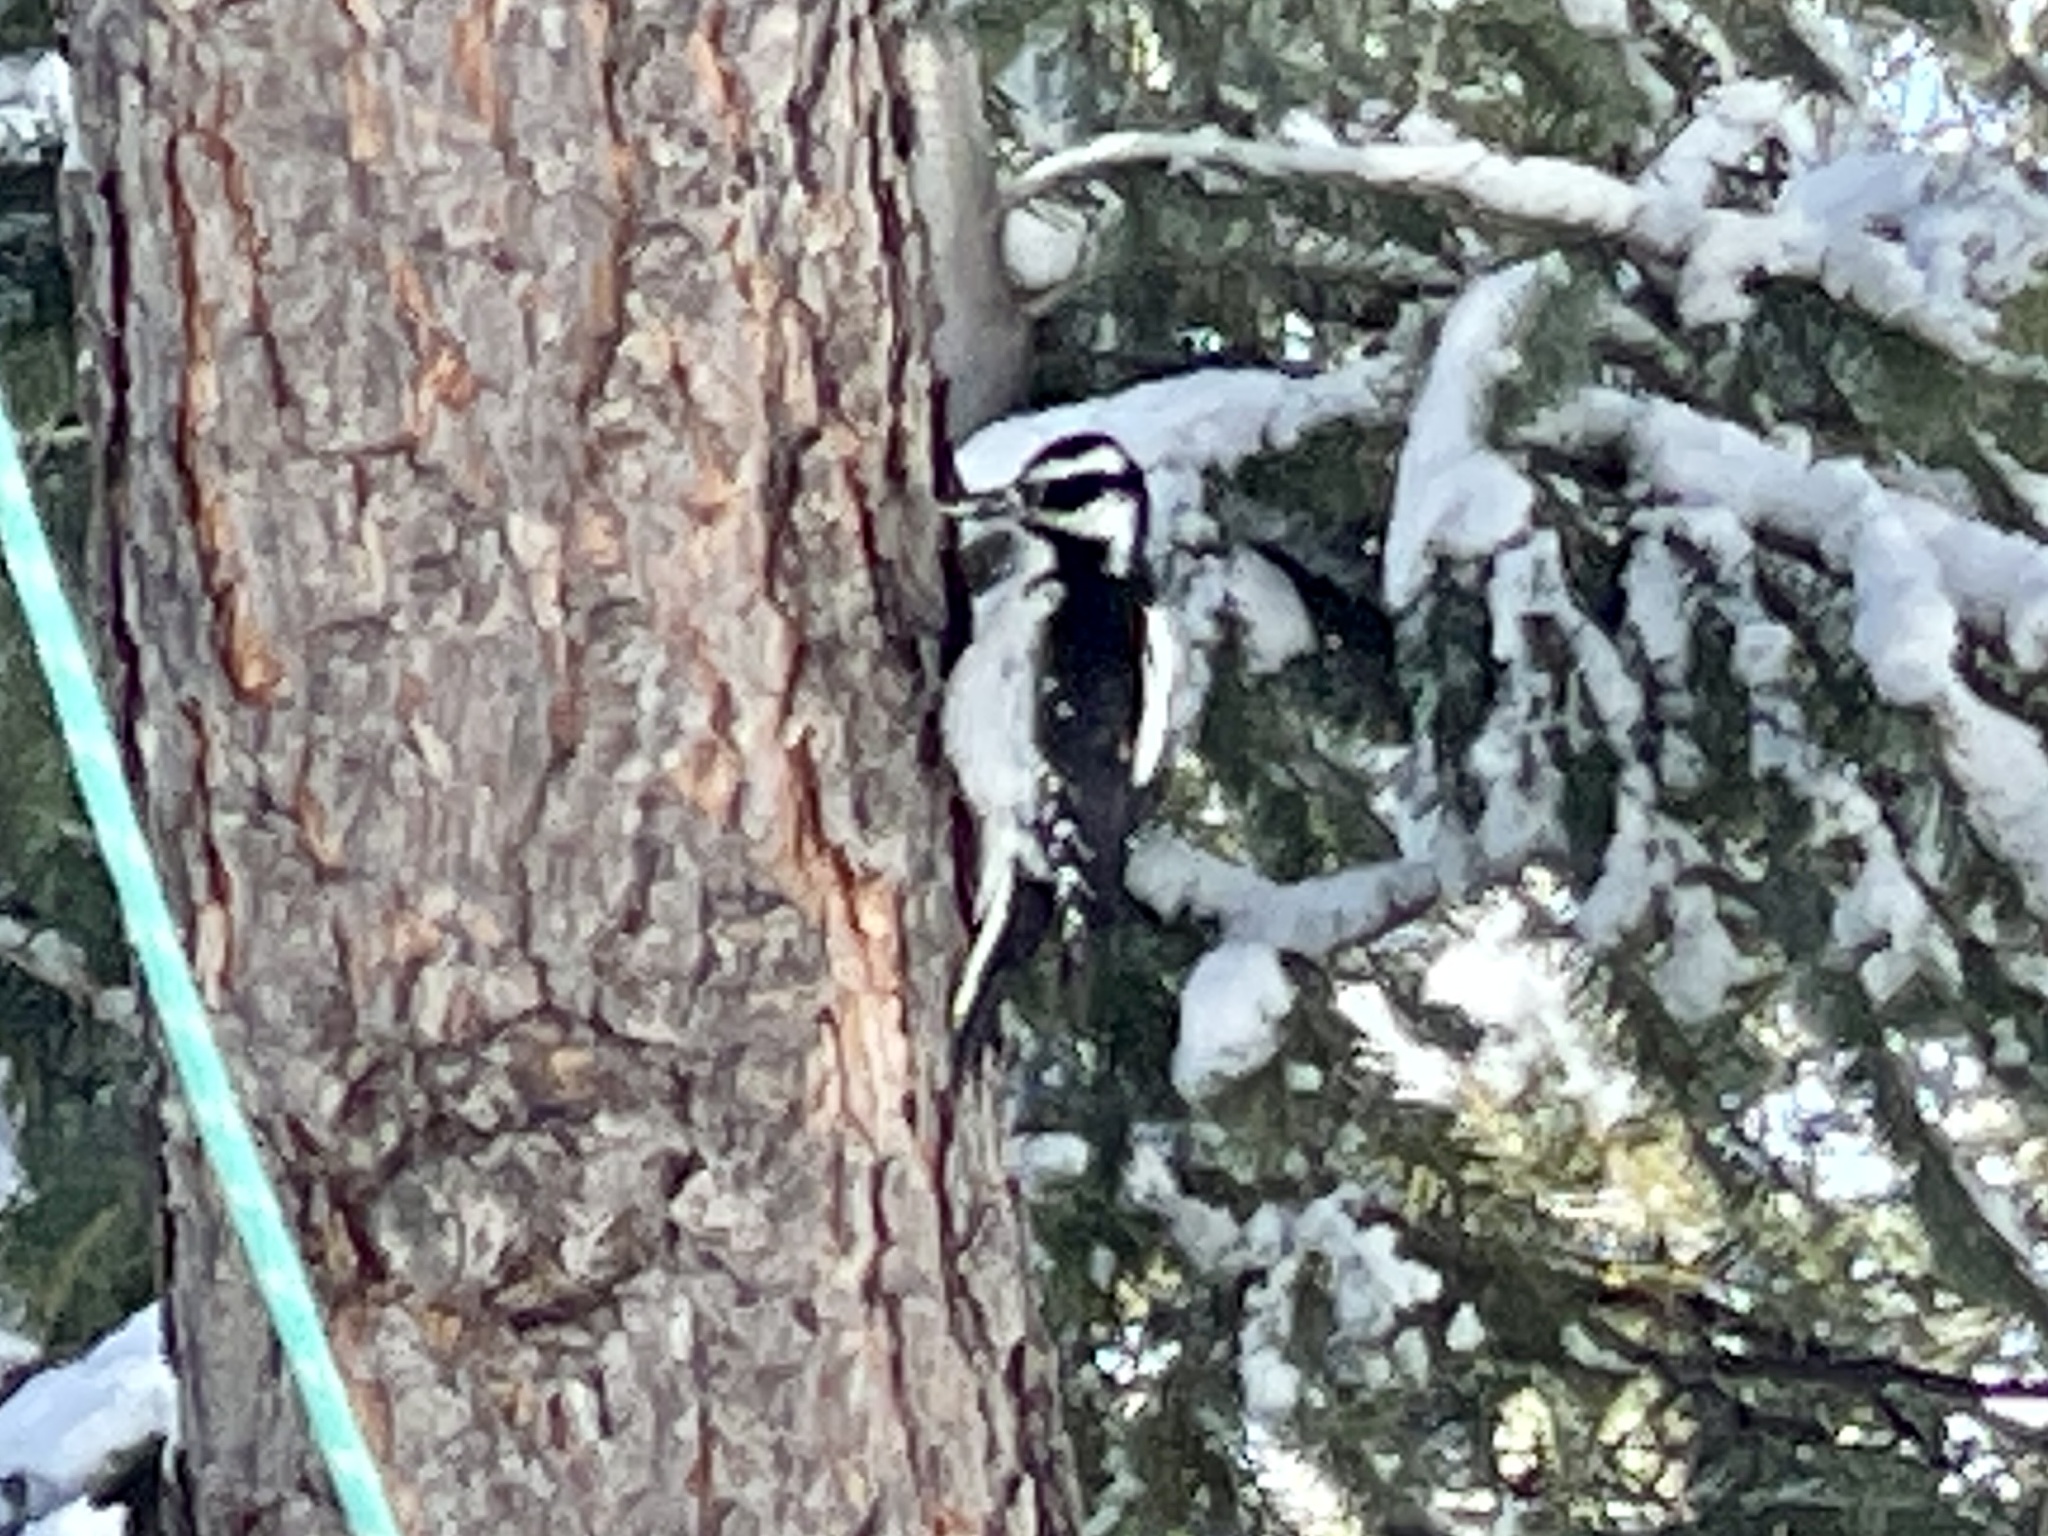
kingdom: Animalia
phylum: Chordata
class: Aves
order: Piciformes
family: Picidae
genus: Leuconotopicus
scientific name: Leuconotopicus villosus
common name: Hairy woodpecker
